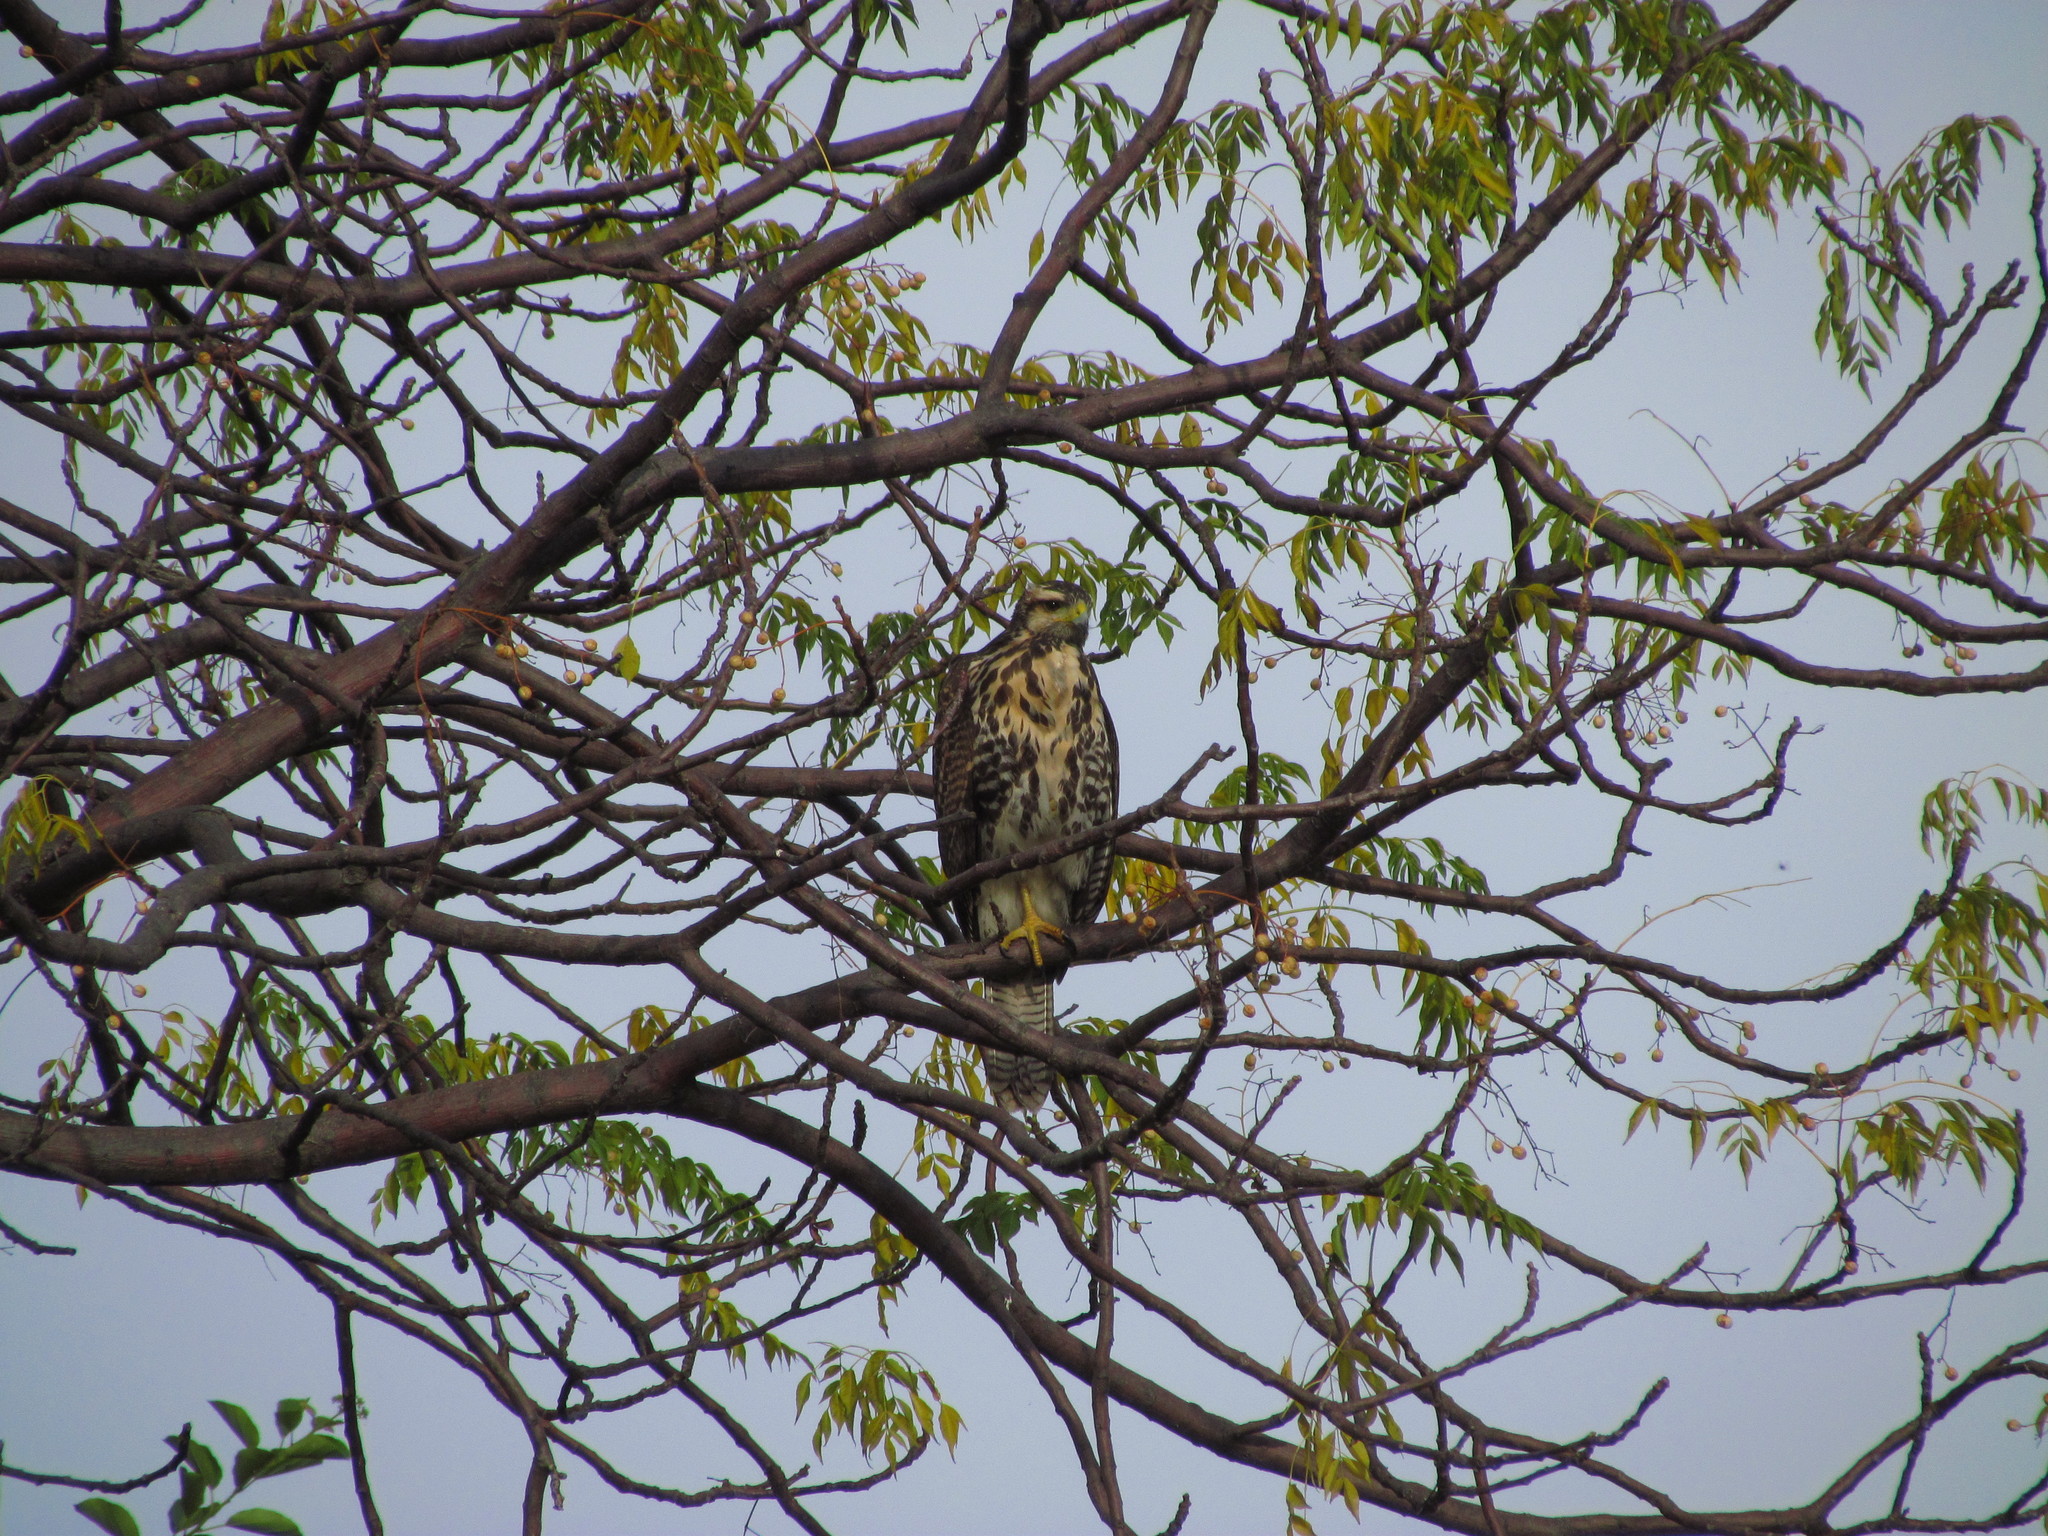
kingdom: Animalia
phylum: Chordata
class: Aves
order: Accipitriformes
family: Accipitridae
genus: Parabuteo
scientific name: Parabuteo unicinctus
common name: Harris's hawk
